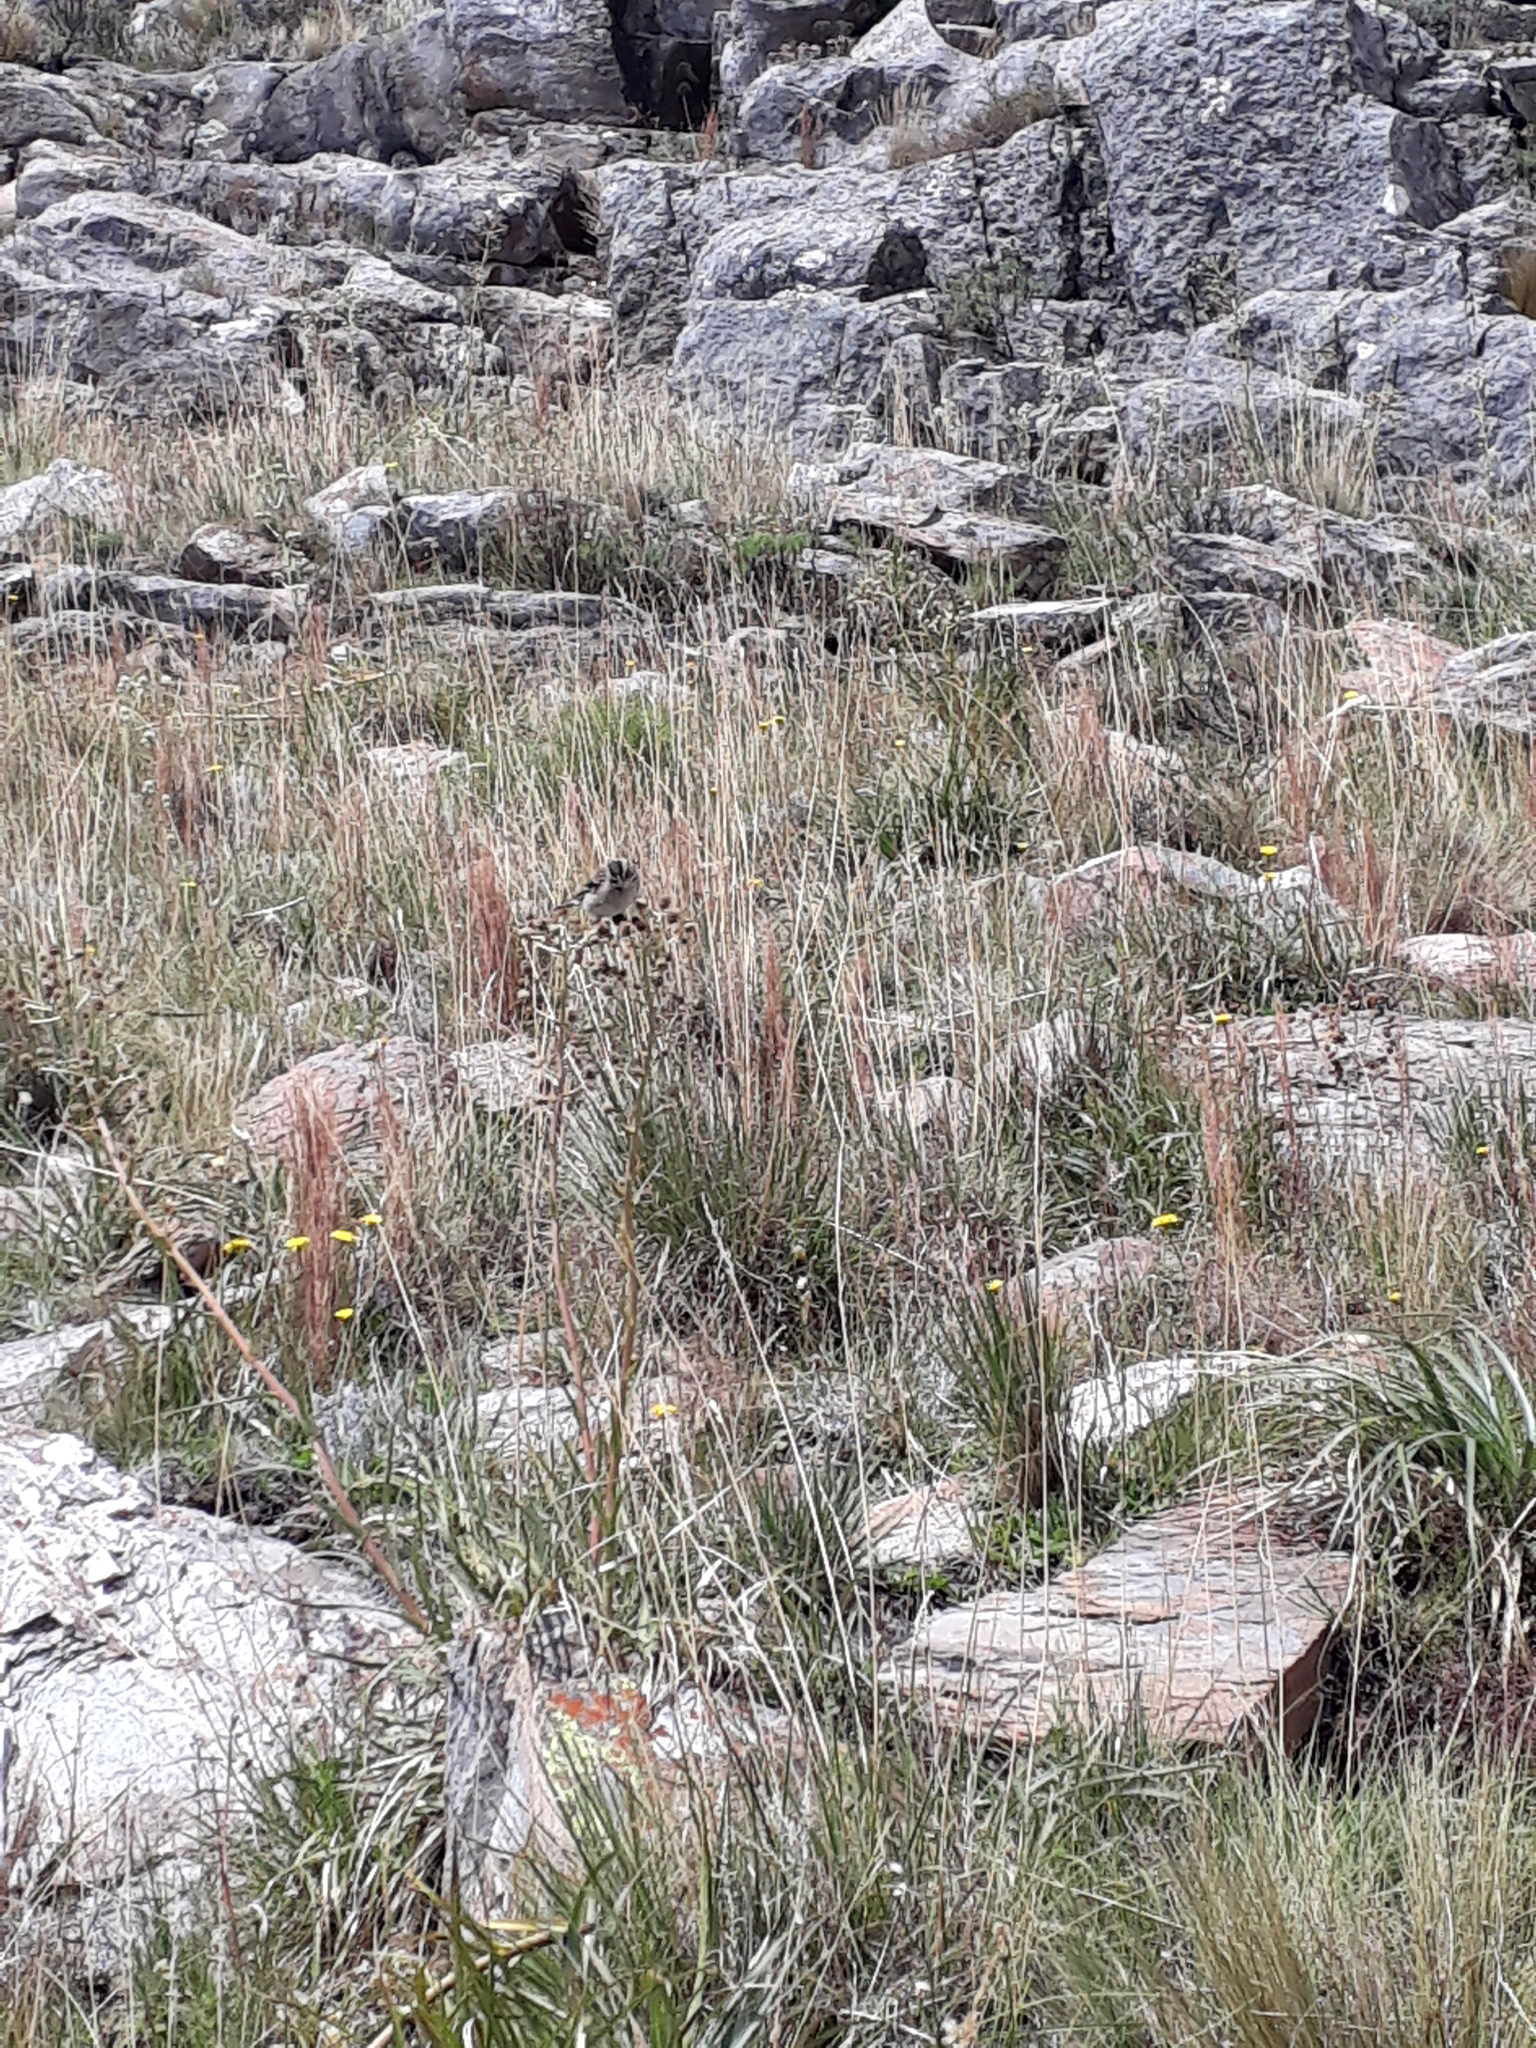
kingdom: Animalia
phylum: Chordata
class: Aves
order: Passeriformes
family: Passerellidae
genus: Zonotrichia
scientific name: Zonotrichia capensis
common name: Rufous-collared sparrow
